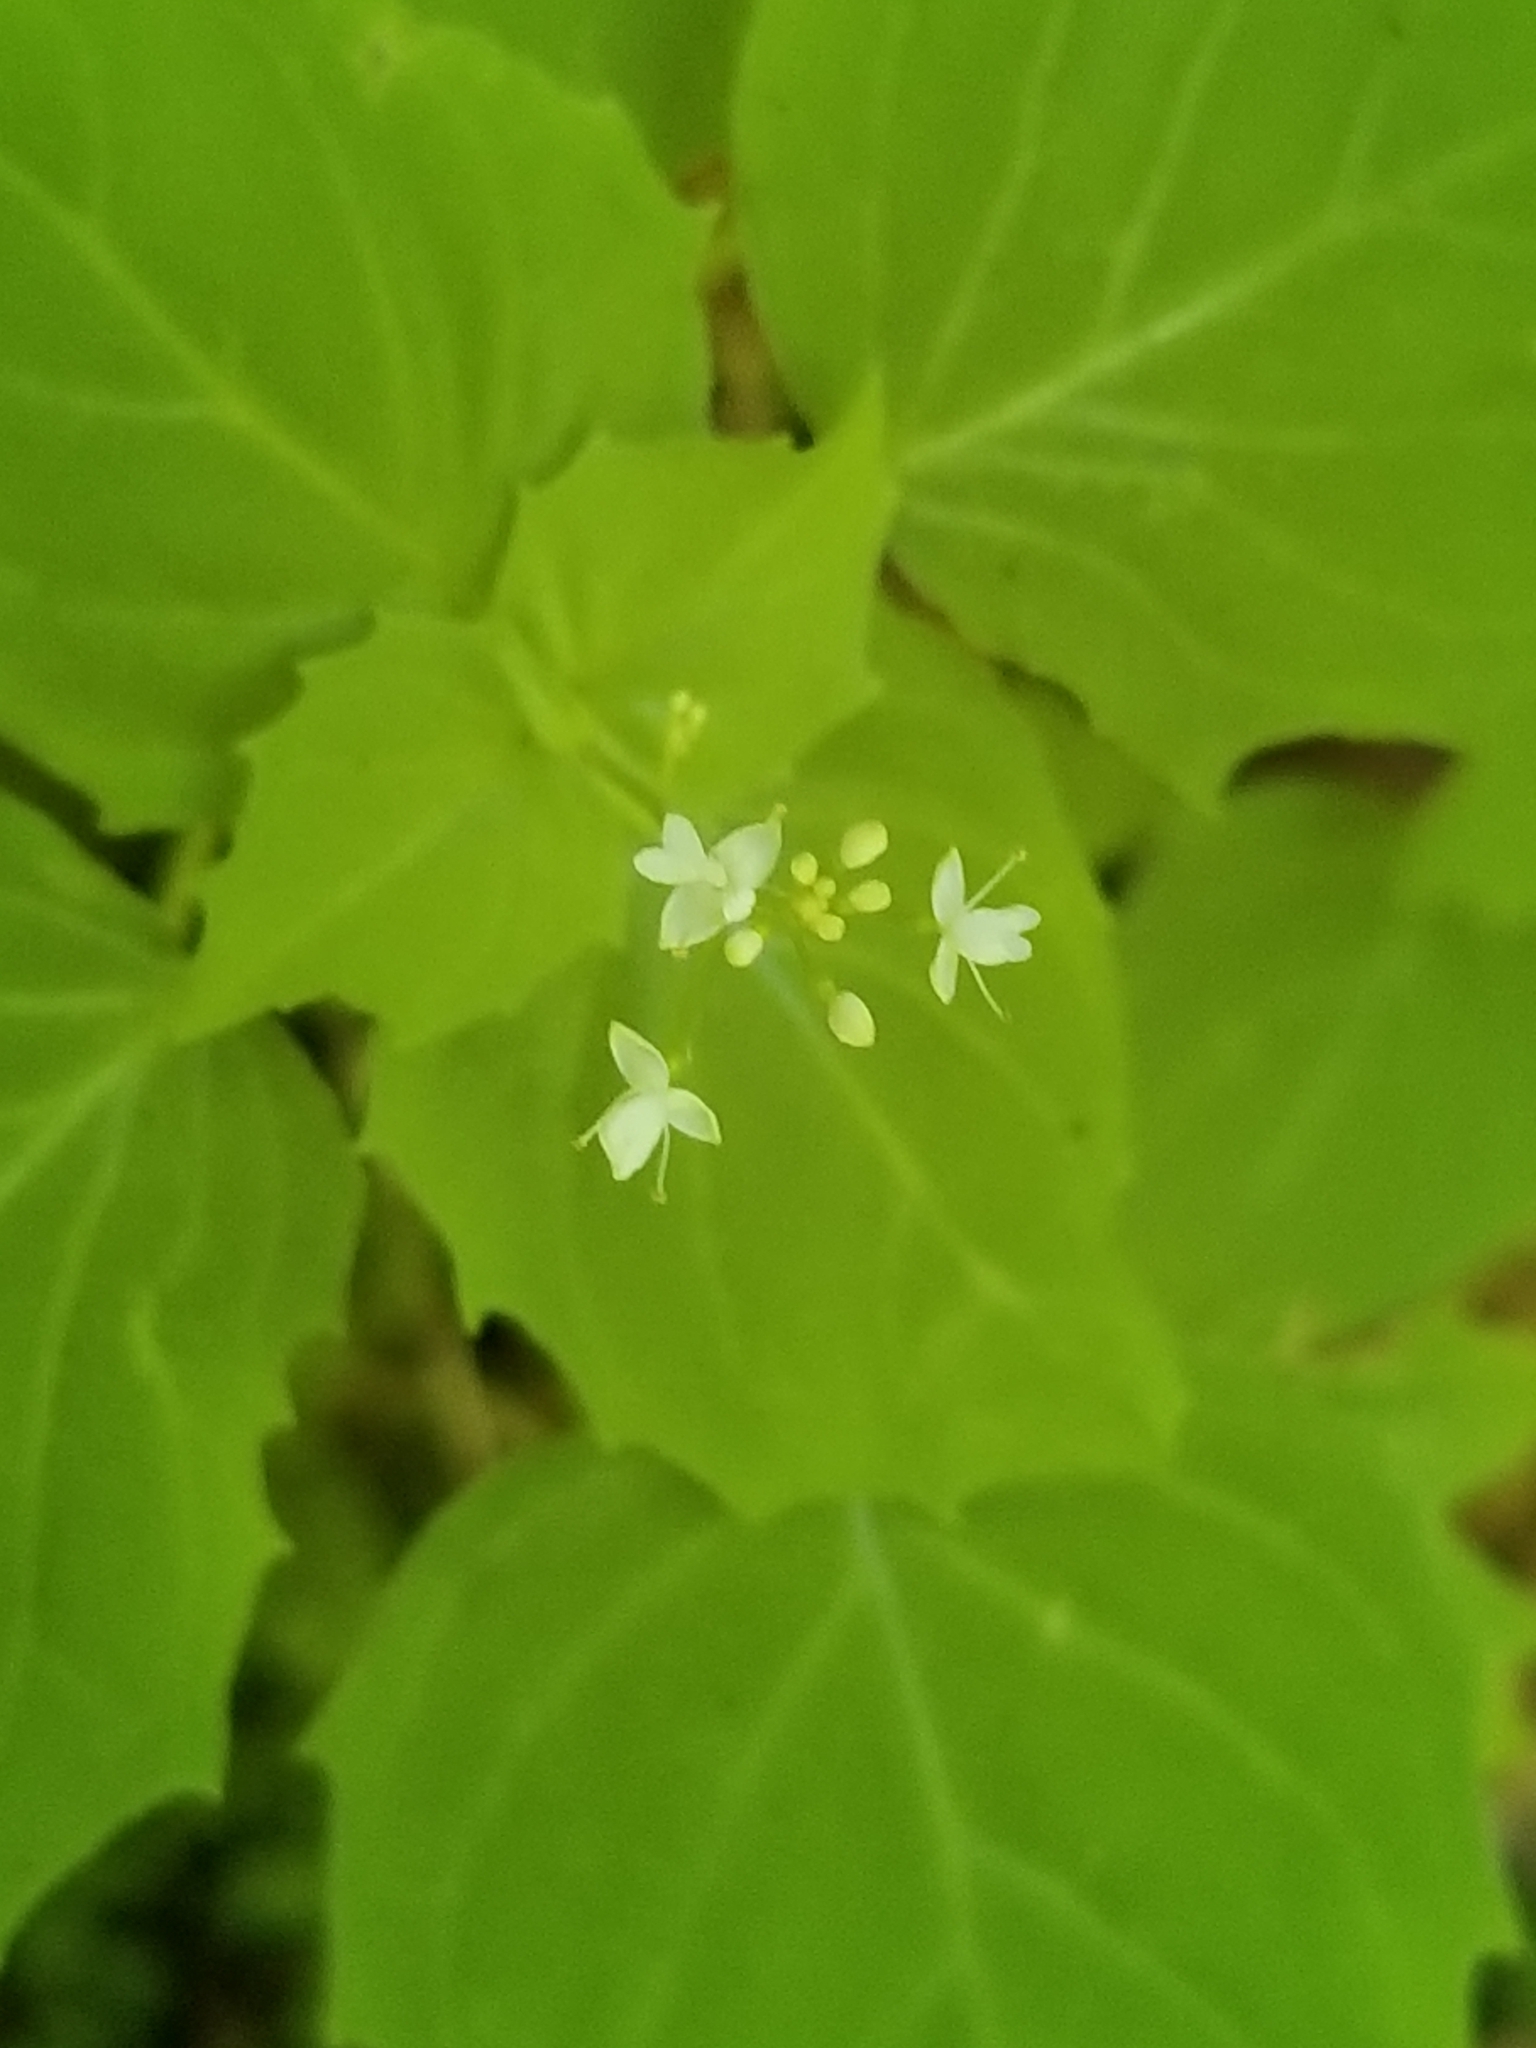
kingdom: Plantae
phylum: Tracheophyta
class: Magnoliopsida
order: Myrtales
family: Onagraceae
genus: Circaea
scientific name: Circaea alpina
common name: Alpine enchanter's-nightshade
